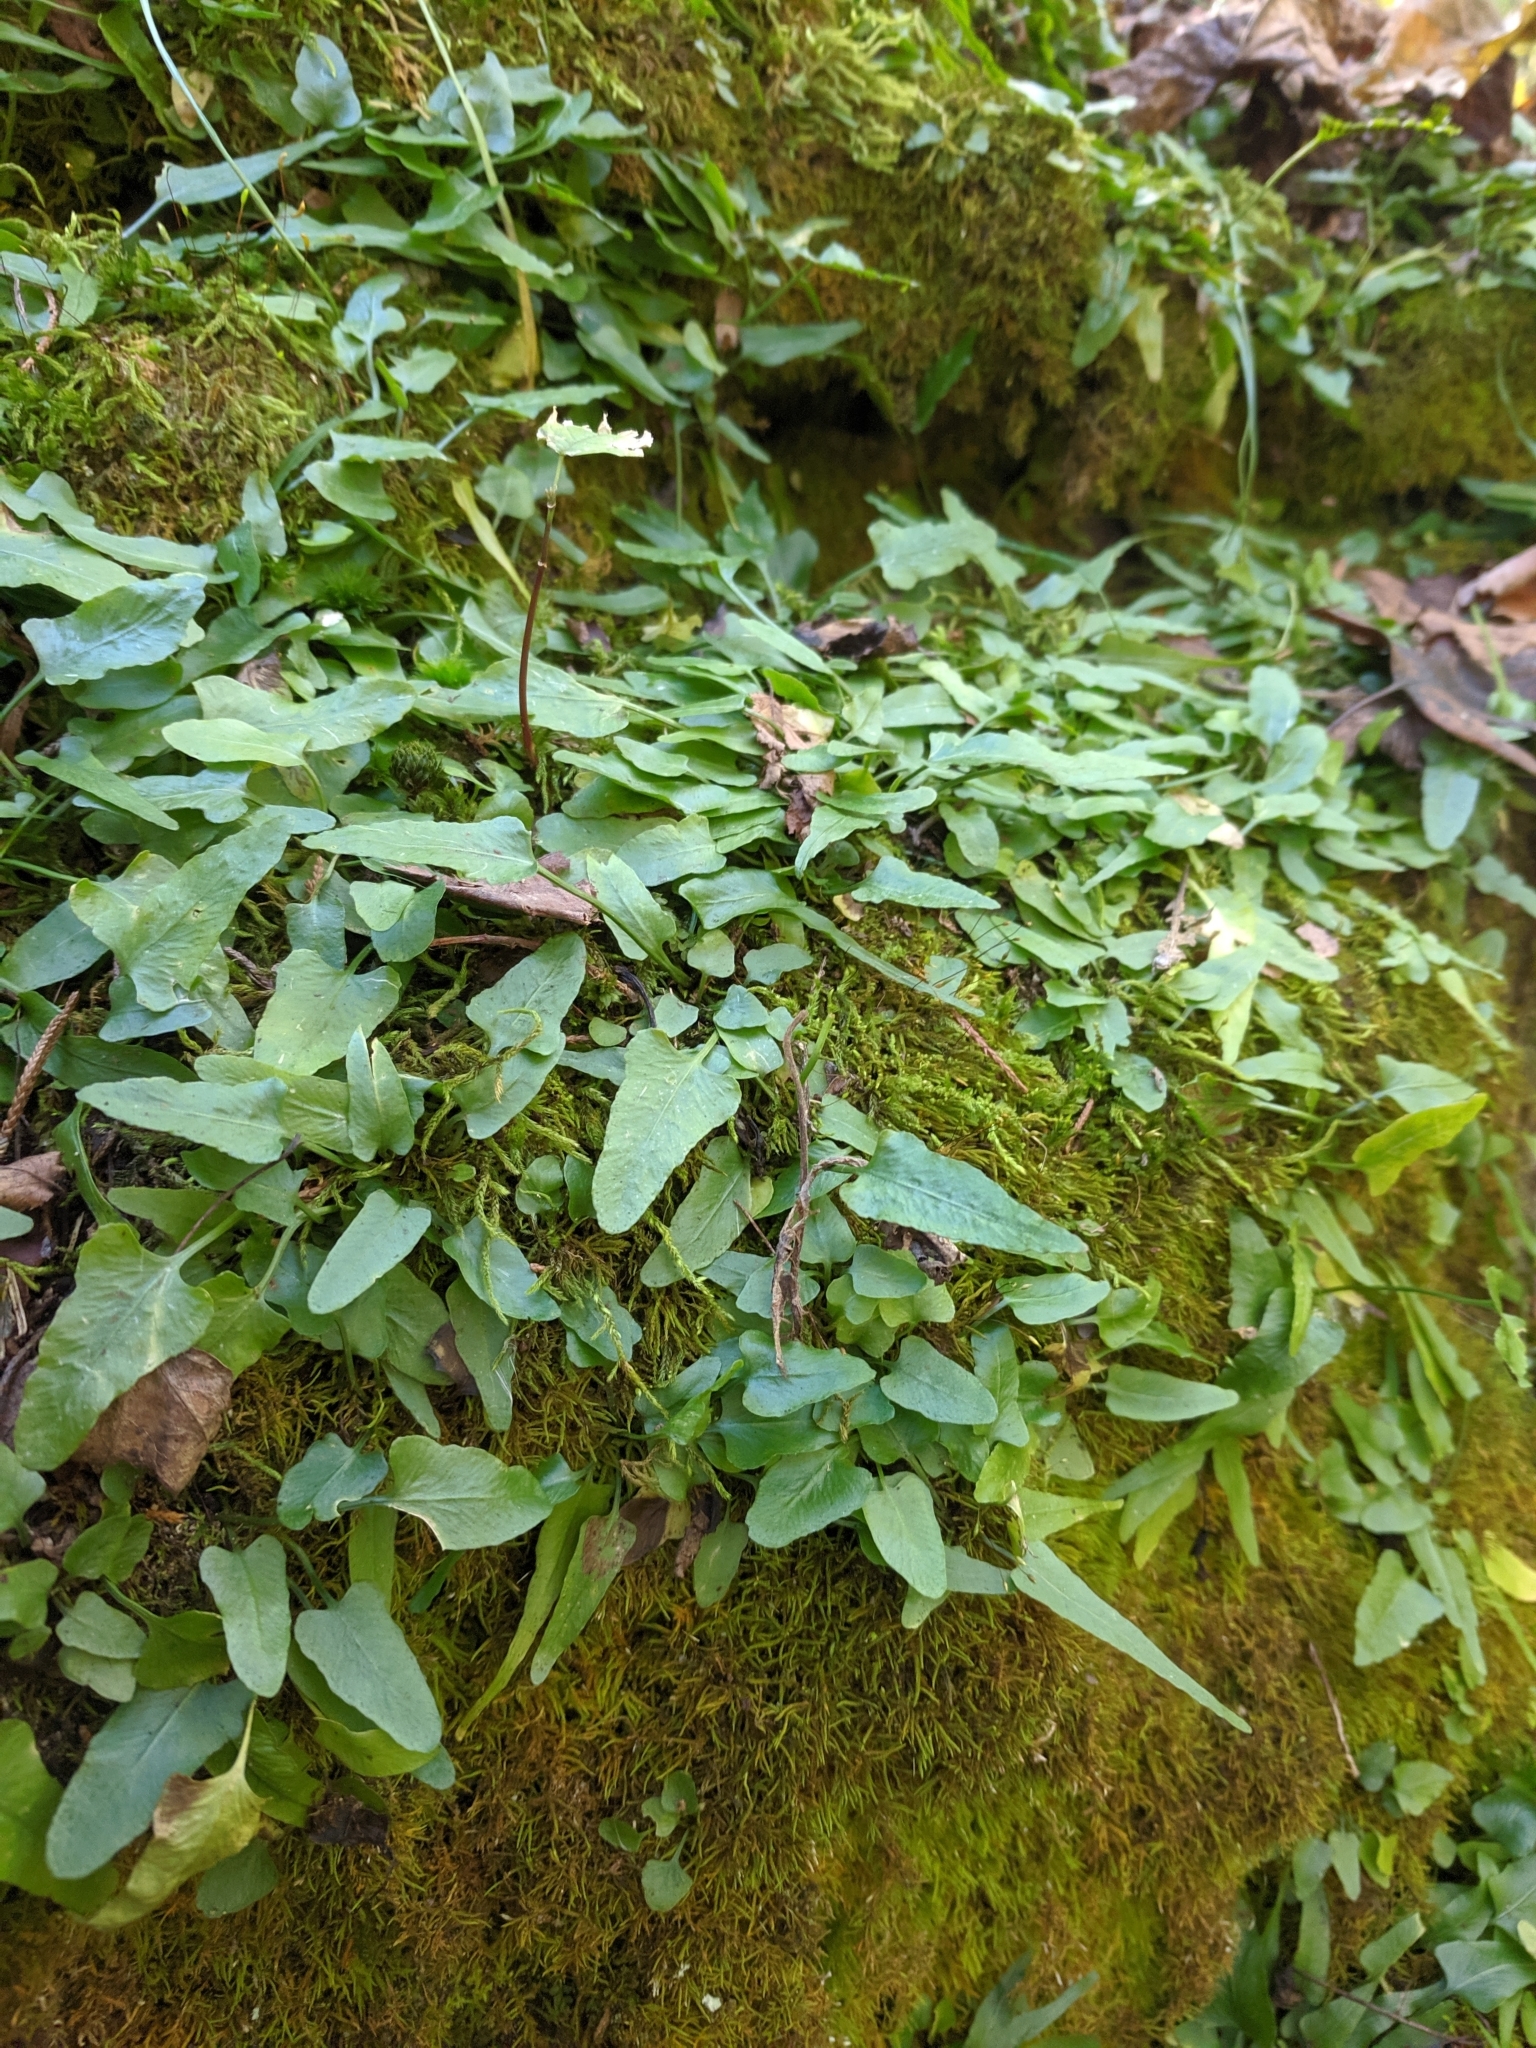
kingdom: Plantae
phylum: Tracheophyta
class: Polypodiopsida
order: Polypodiales
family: Aspleniaceae
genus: Asplenium
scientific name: Asplenium rhizophyllum
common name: Walking fern
